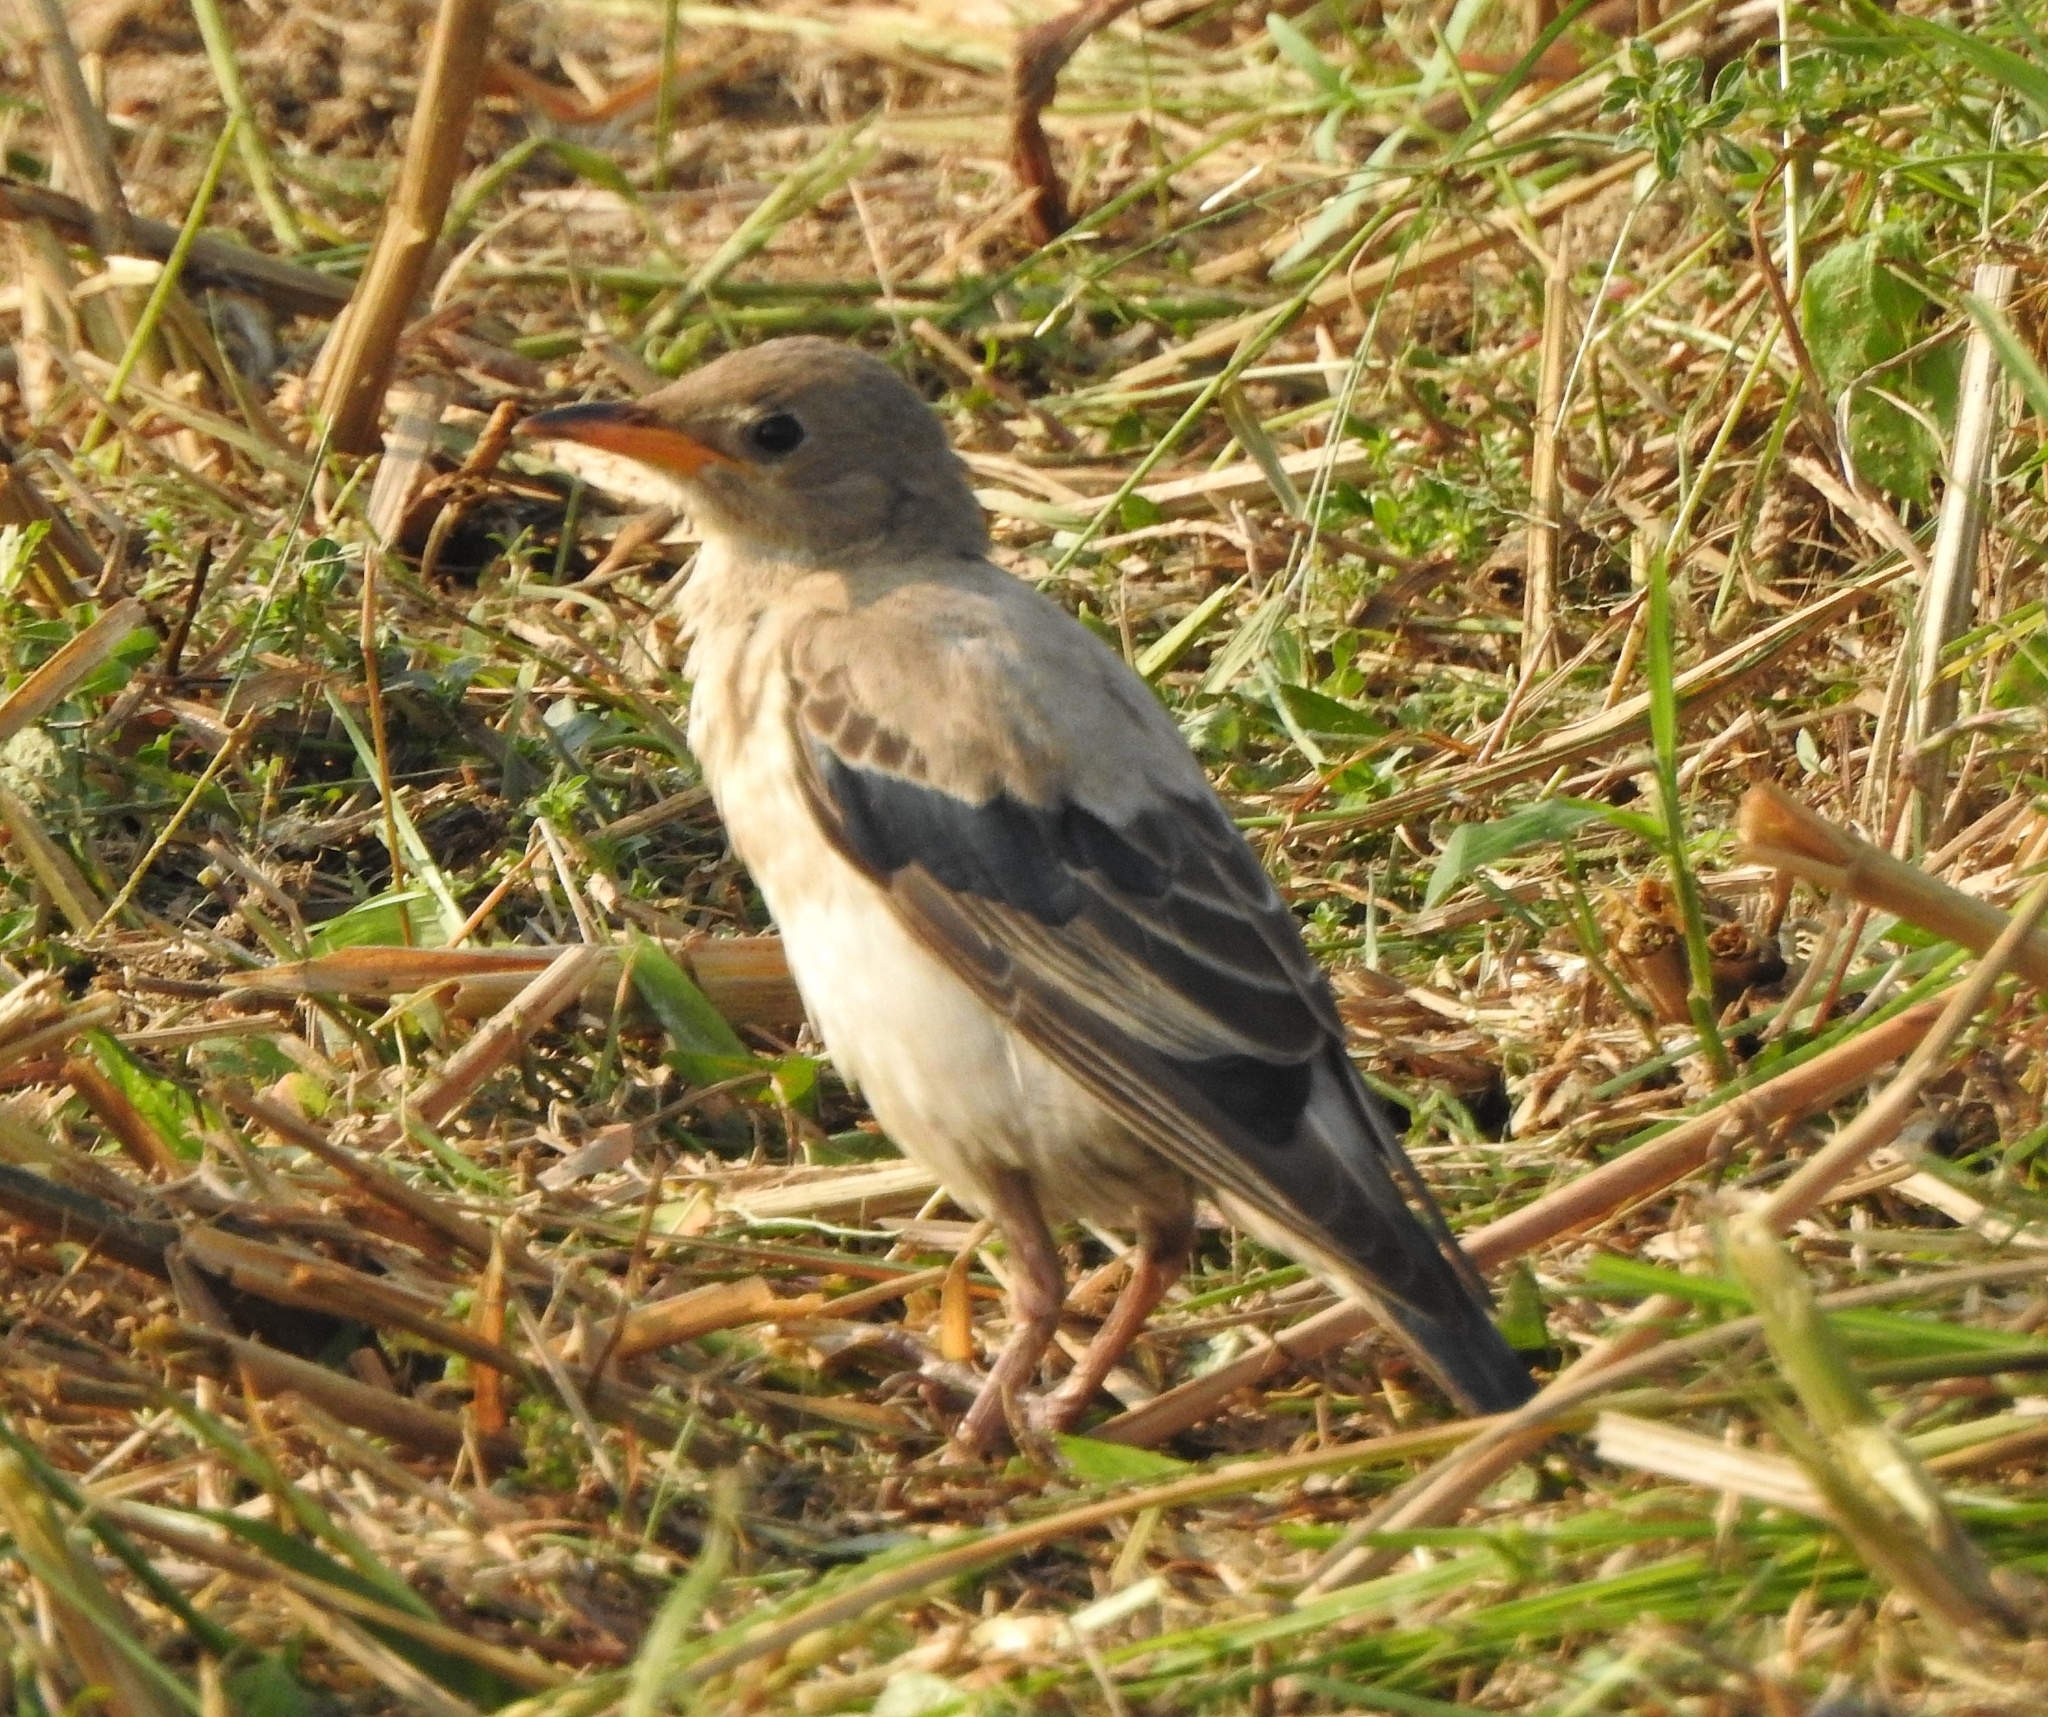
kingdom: Animalia
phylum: Chordata
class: Aves
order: Passeriformes
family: Sturnidae
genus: Pastor
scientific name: Pastor roseus
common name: Rosy starling
